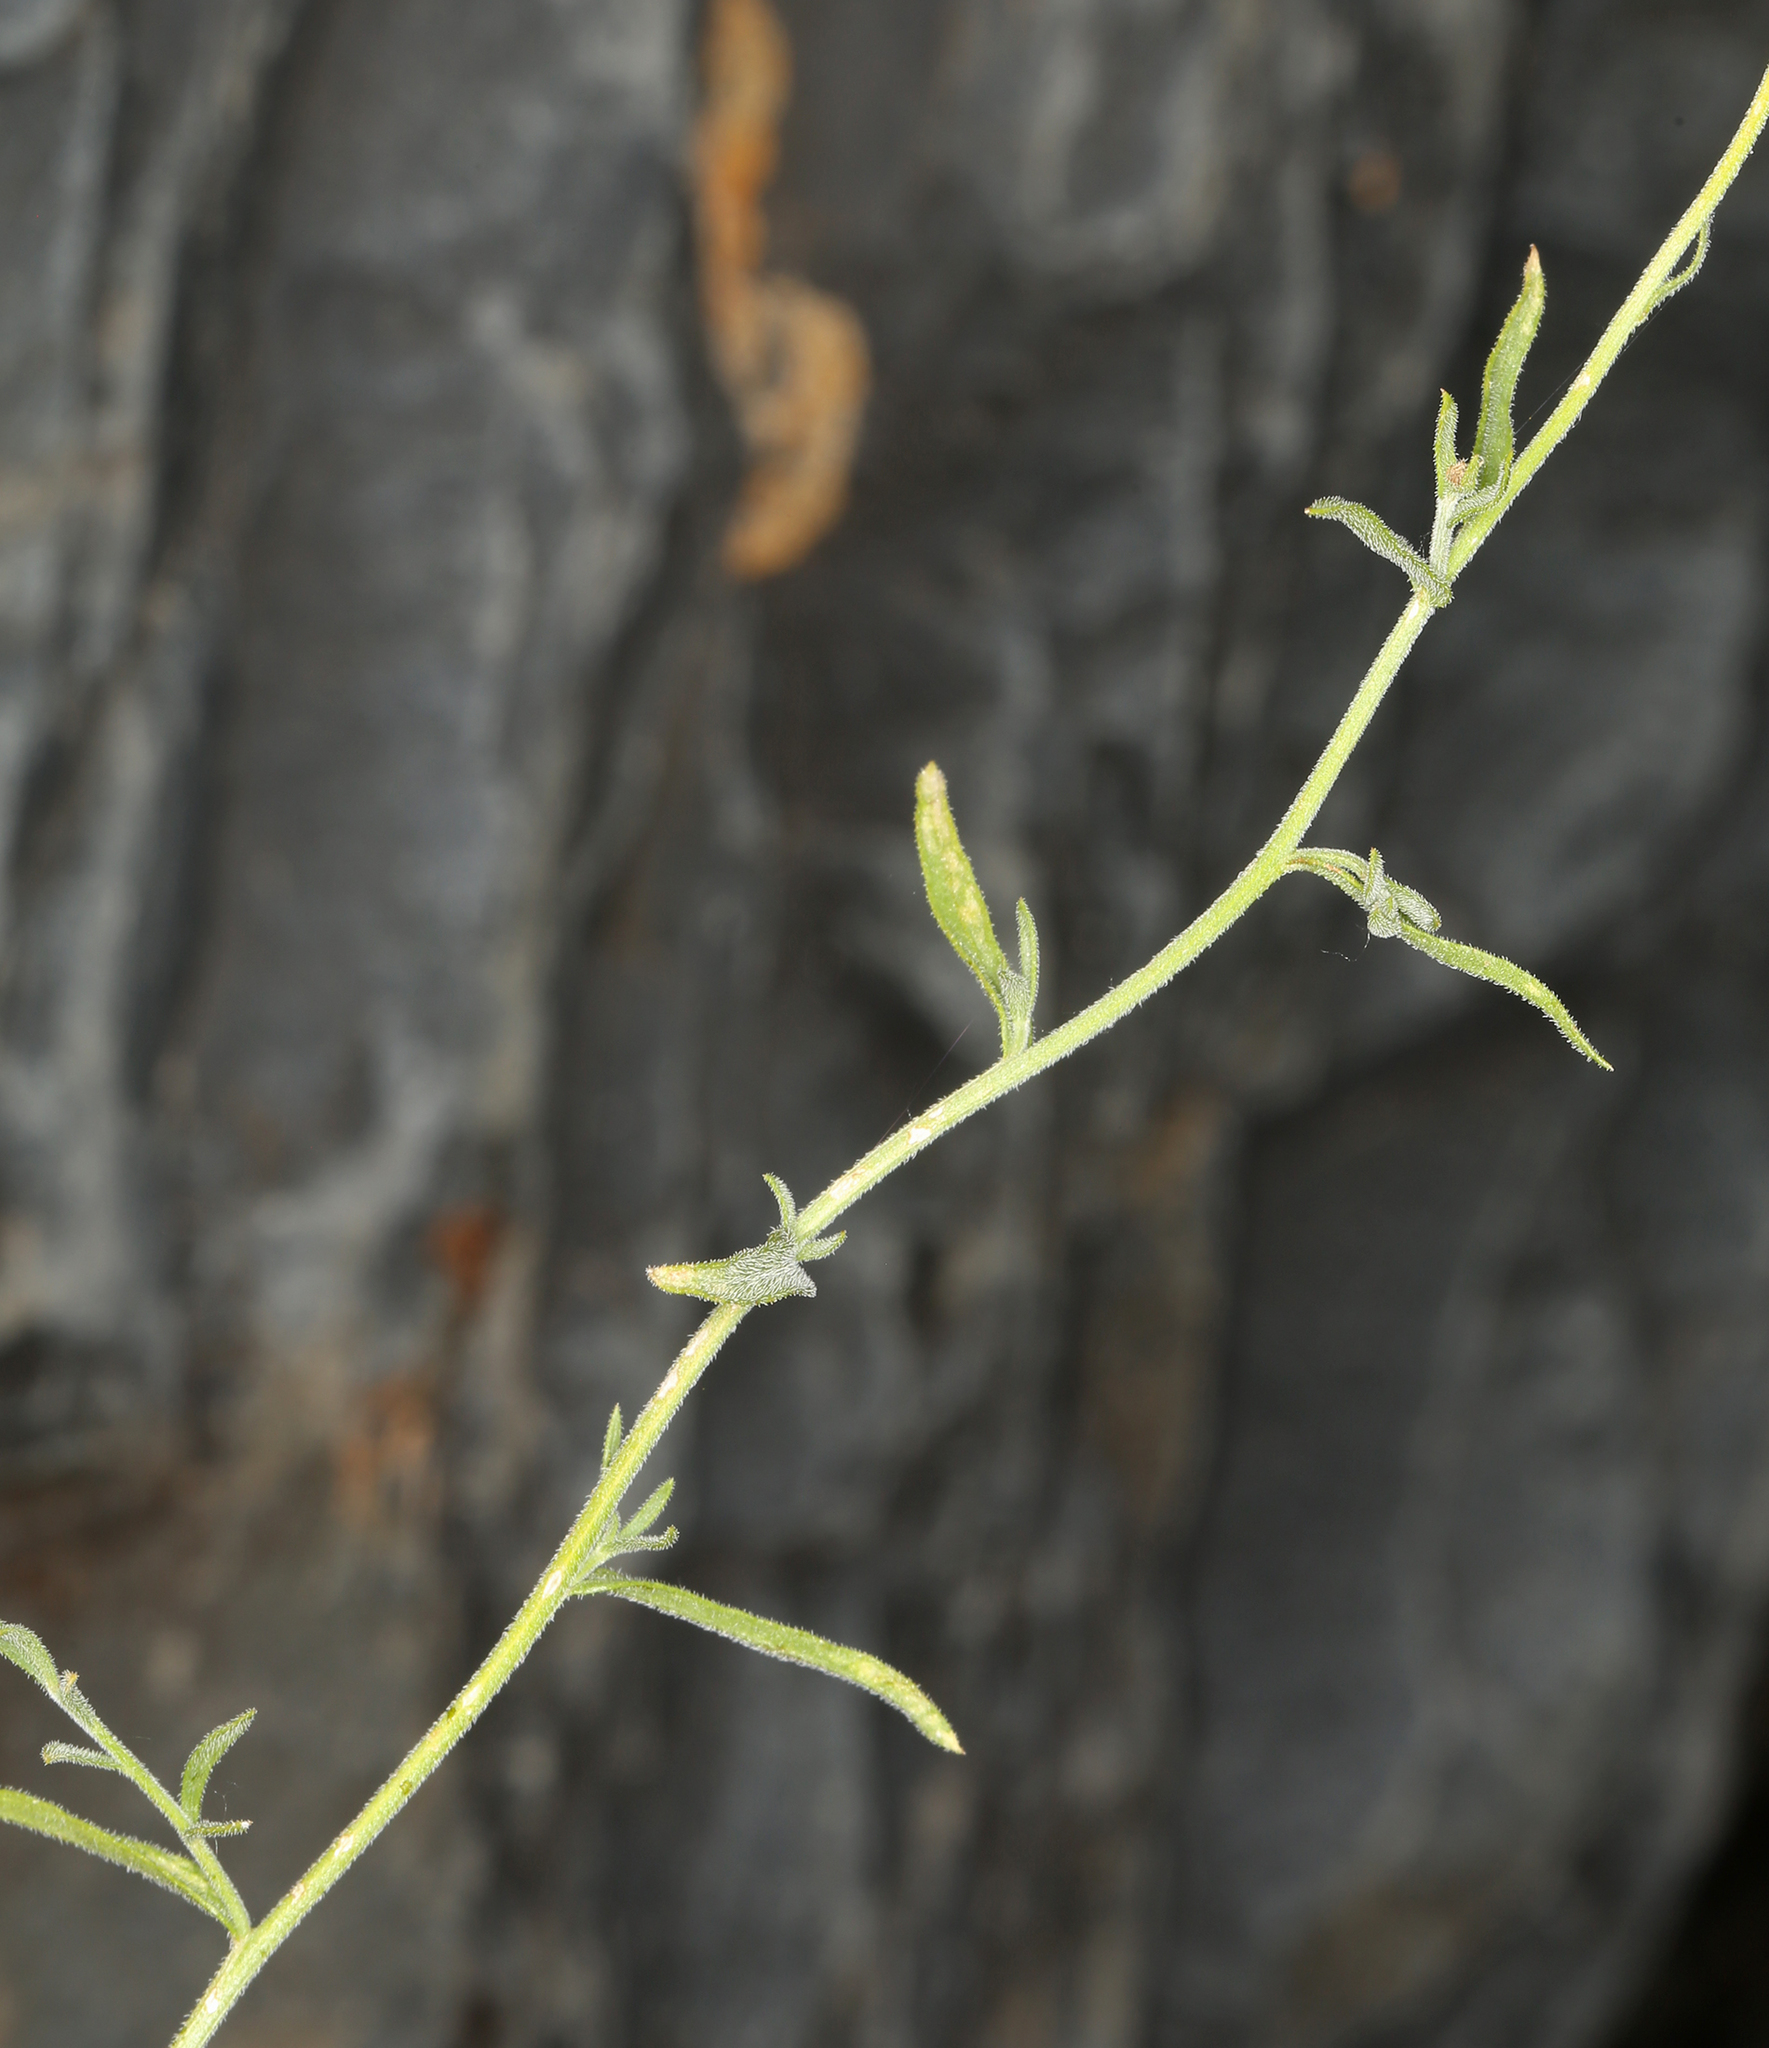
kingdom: Plantae
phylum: Tracheophyta
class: Magnoliopsida
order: Asterales
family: Asteraceae
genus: Erigeron
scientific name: Erigeron breweri
